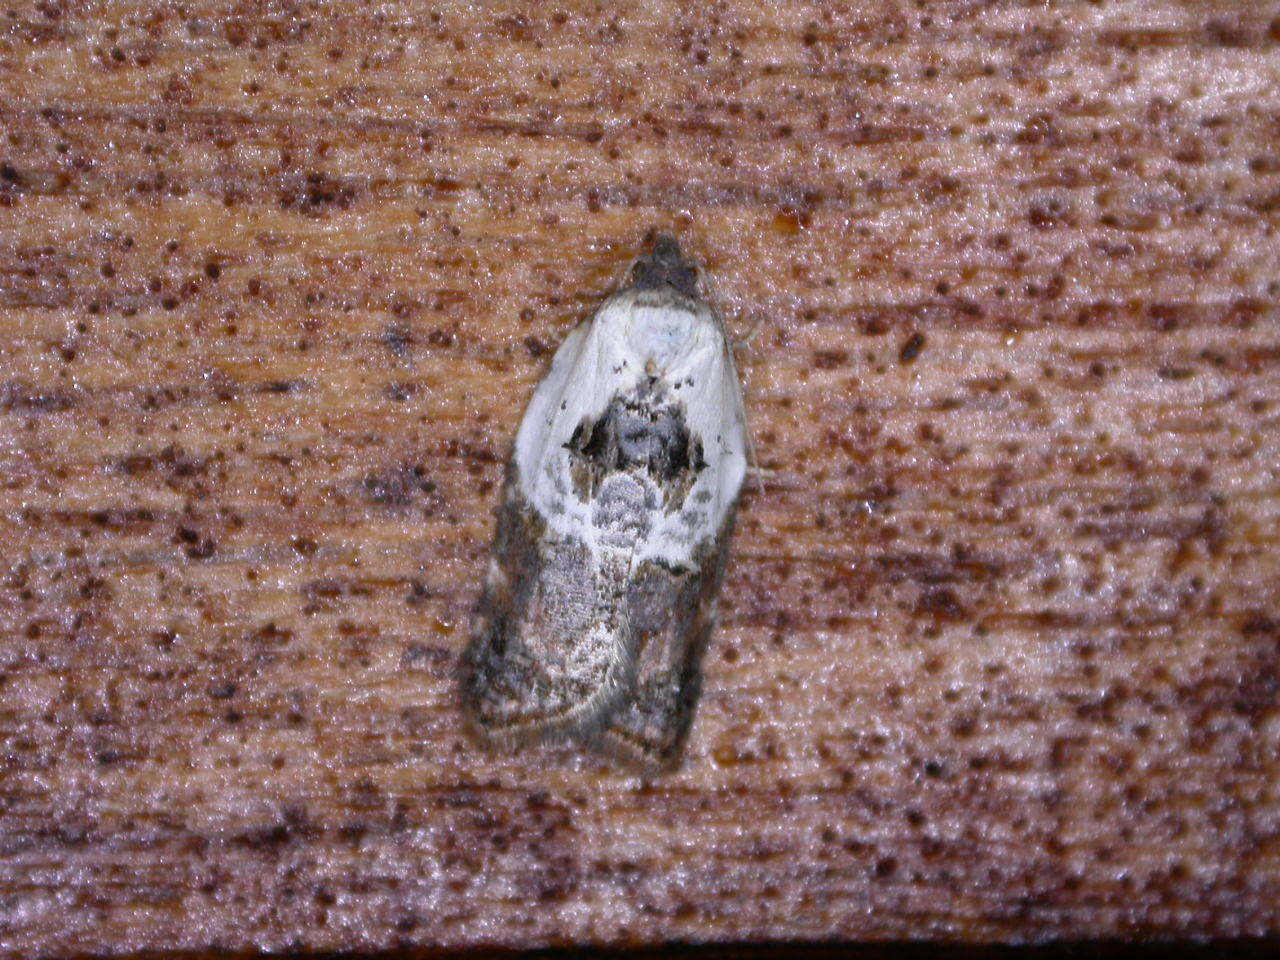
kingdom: Animalia
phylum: Arthropoda
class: Insecta
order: Lepidoptera
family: Tortricidae
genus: Acleris
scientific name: Acleris variegana
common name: Garden rose tortrix
